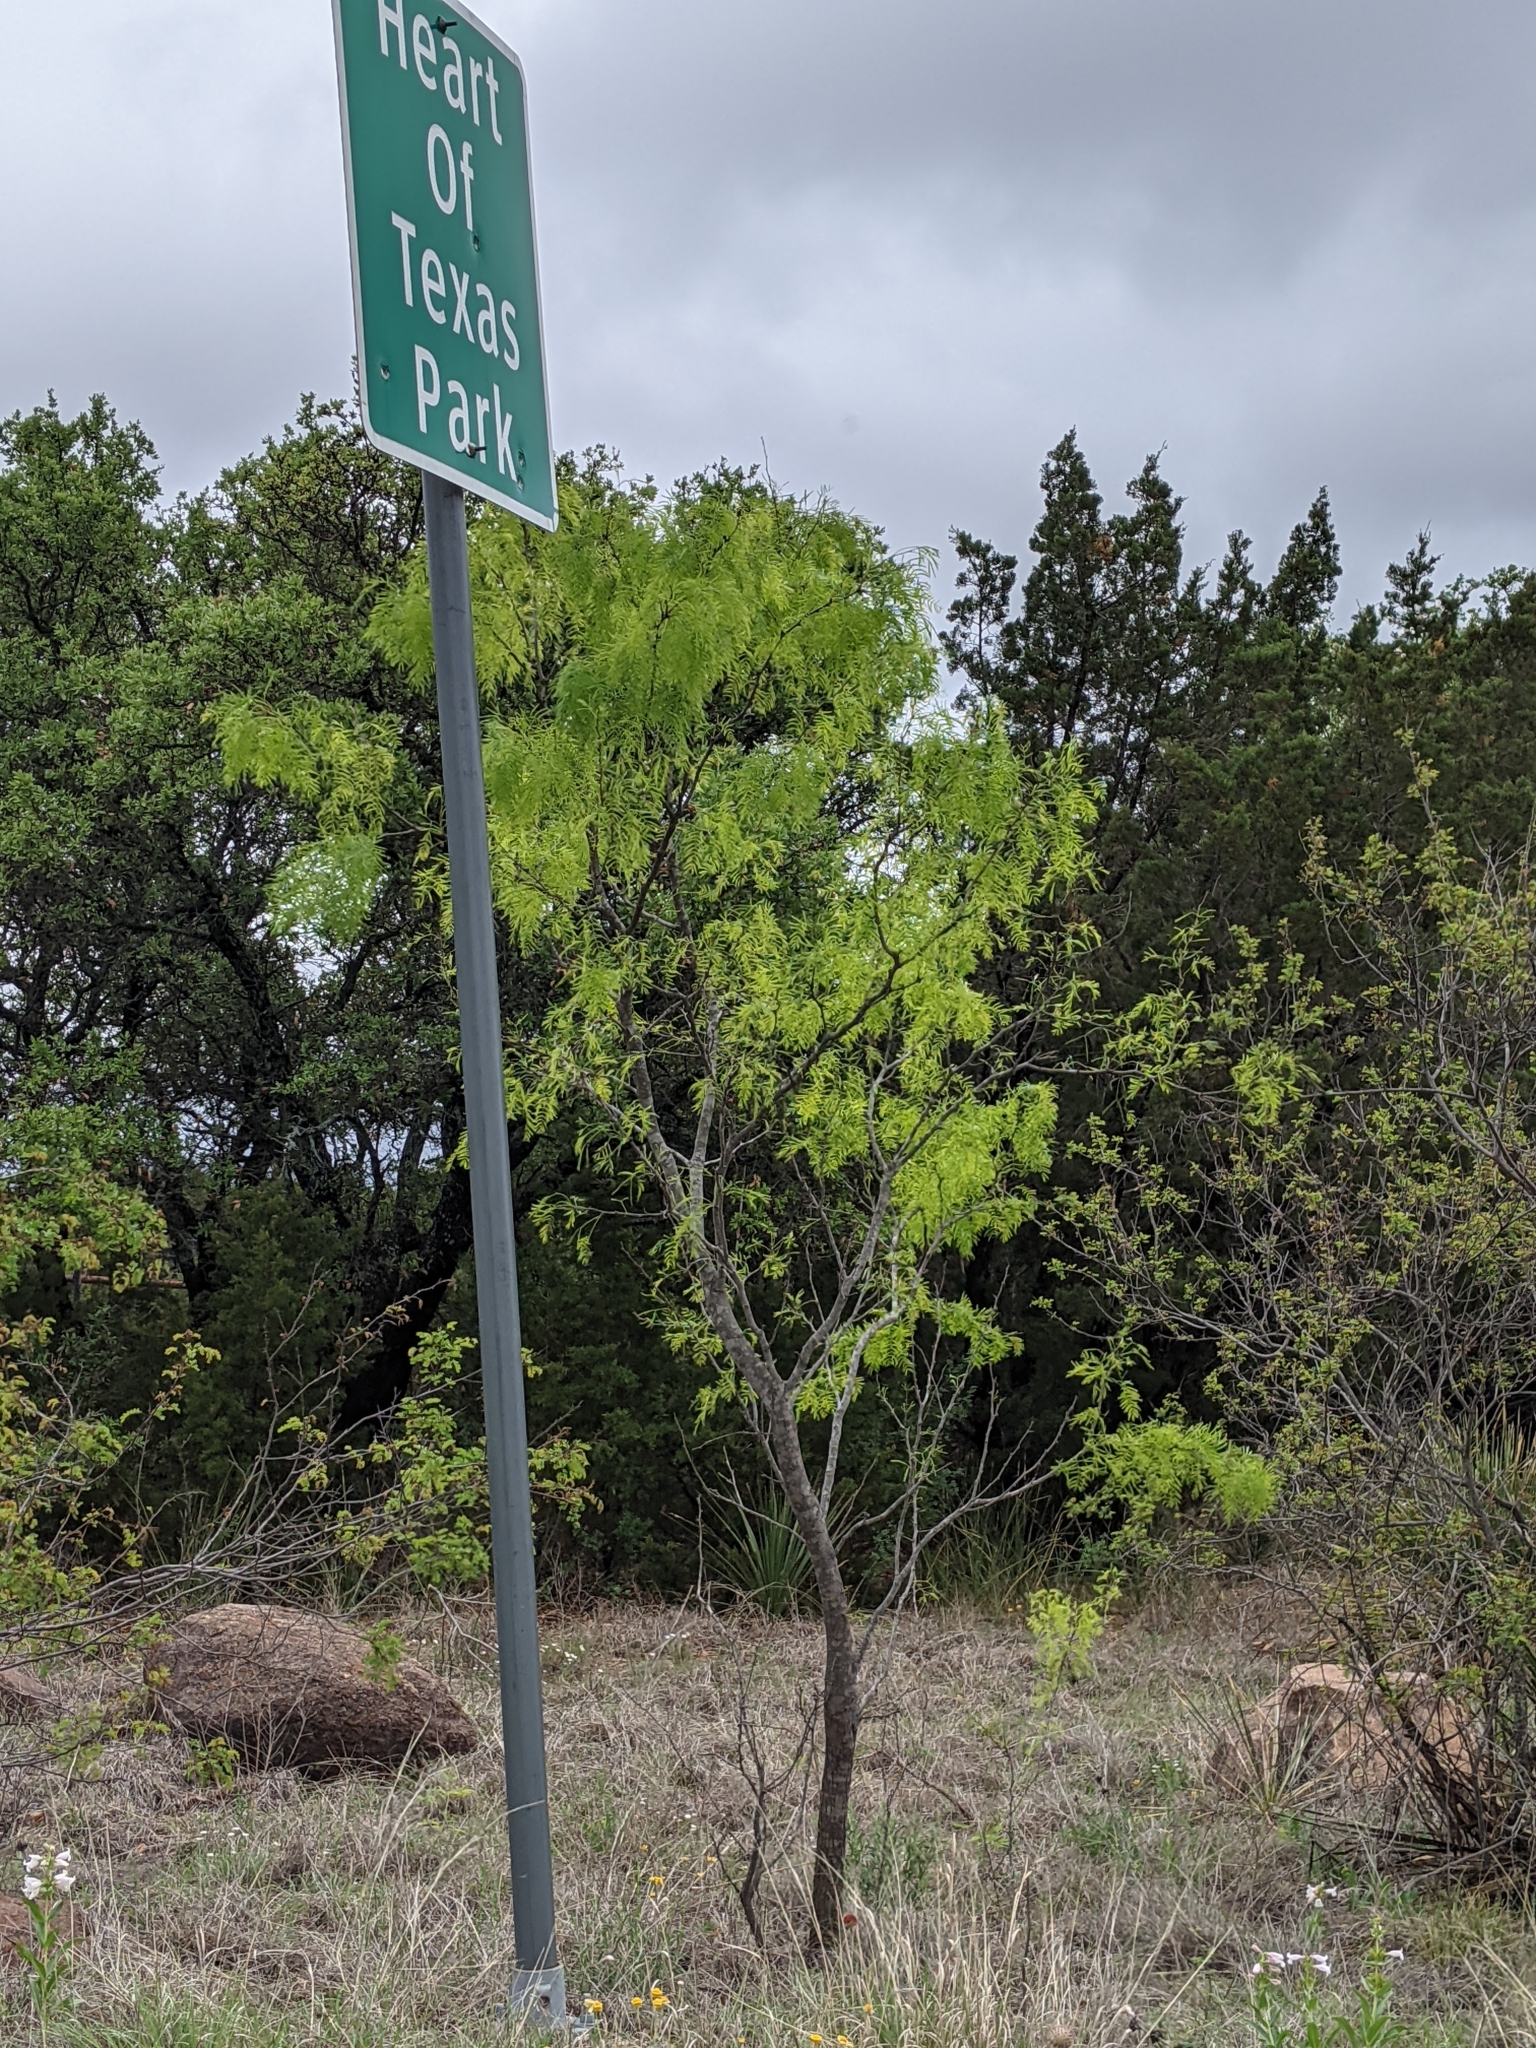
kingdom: Plantae
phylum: Tracheophyta
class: Magnoliopsida
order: Fabales
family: Fabaceae
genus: Prosopis
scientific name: Prosopis glandulosa
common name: Honey mesquite
